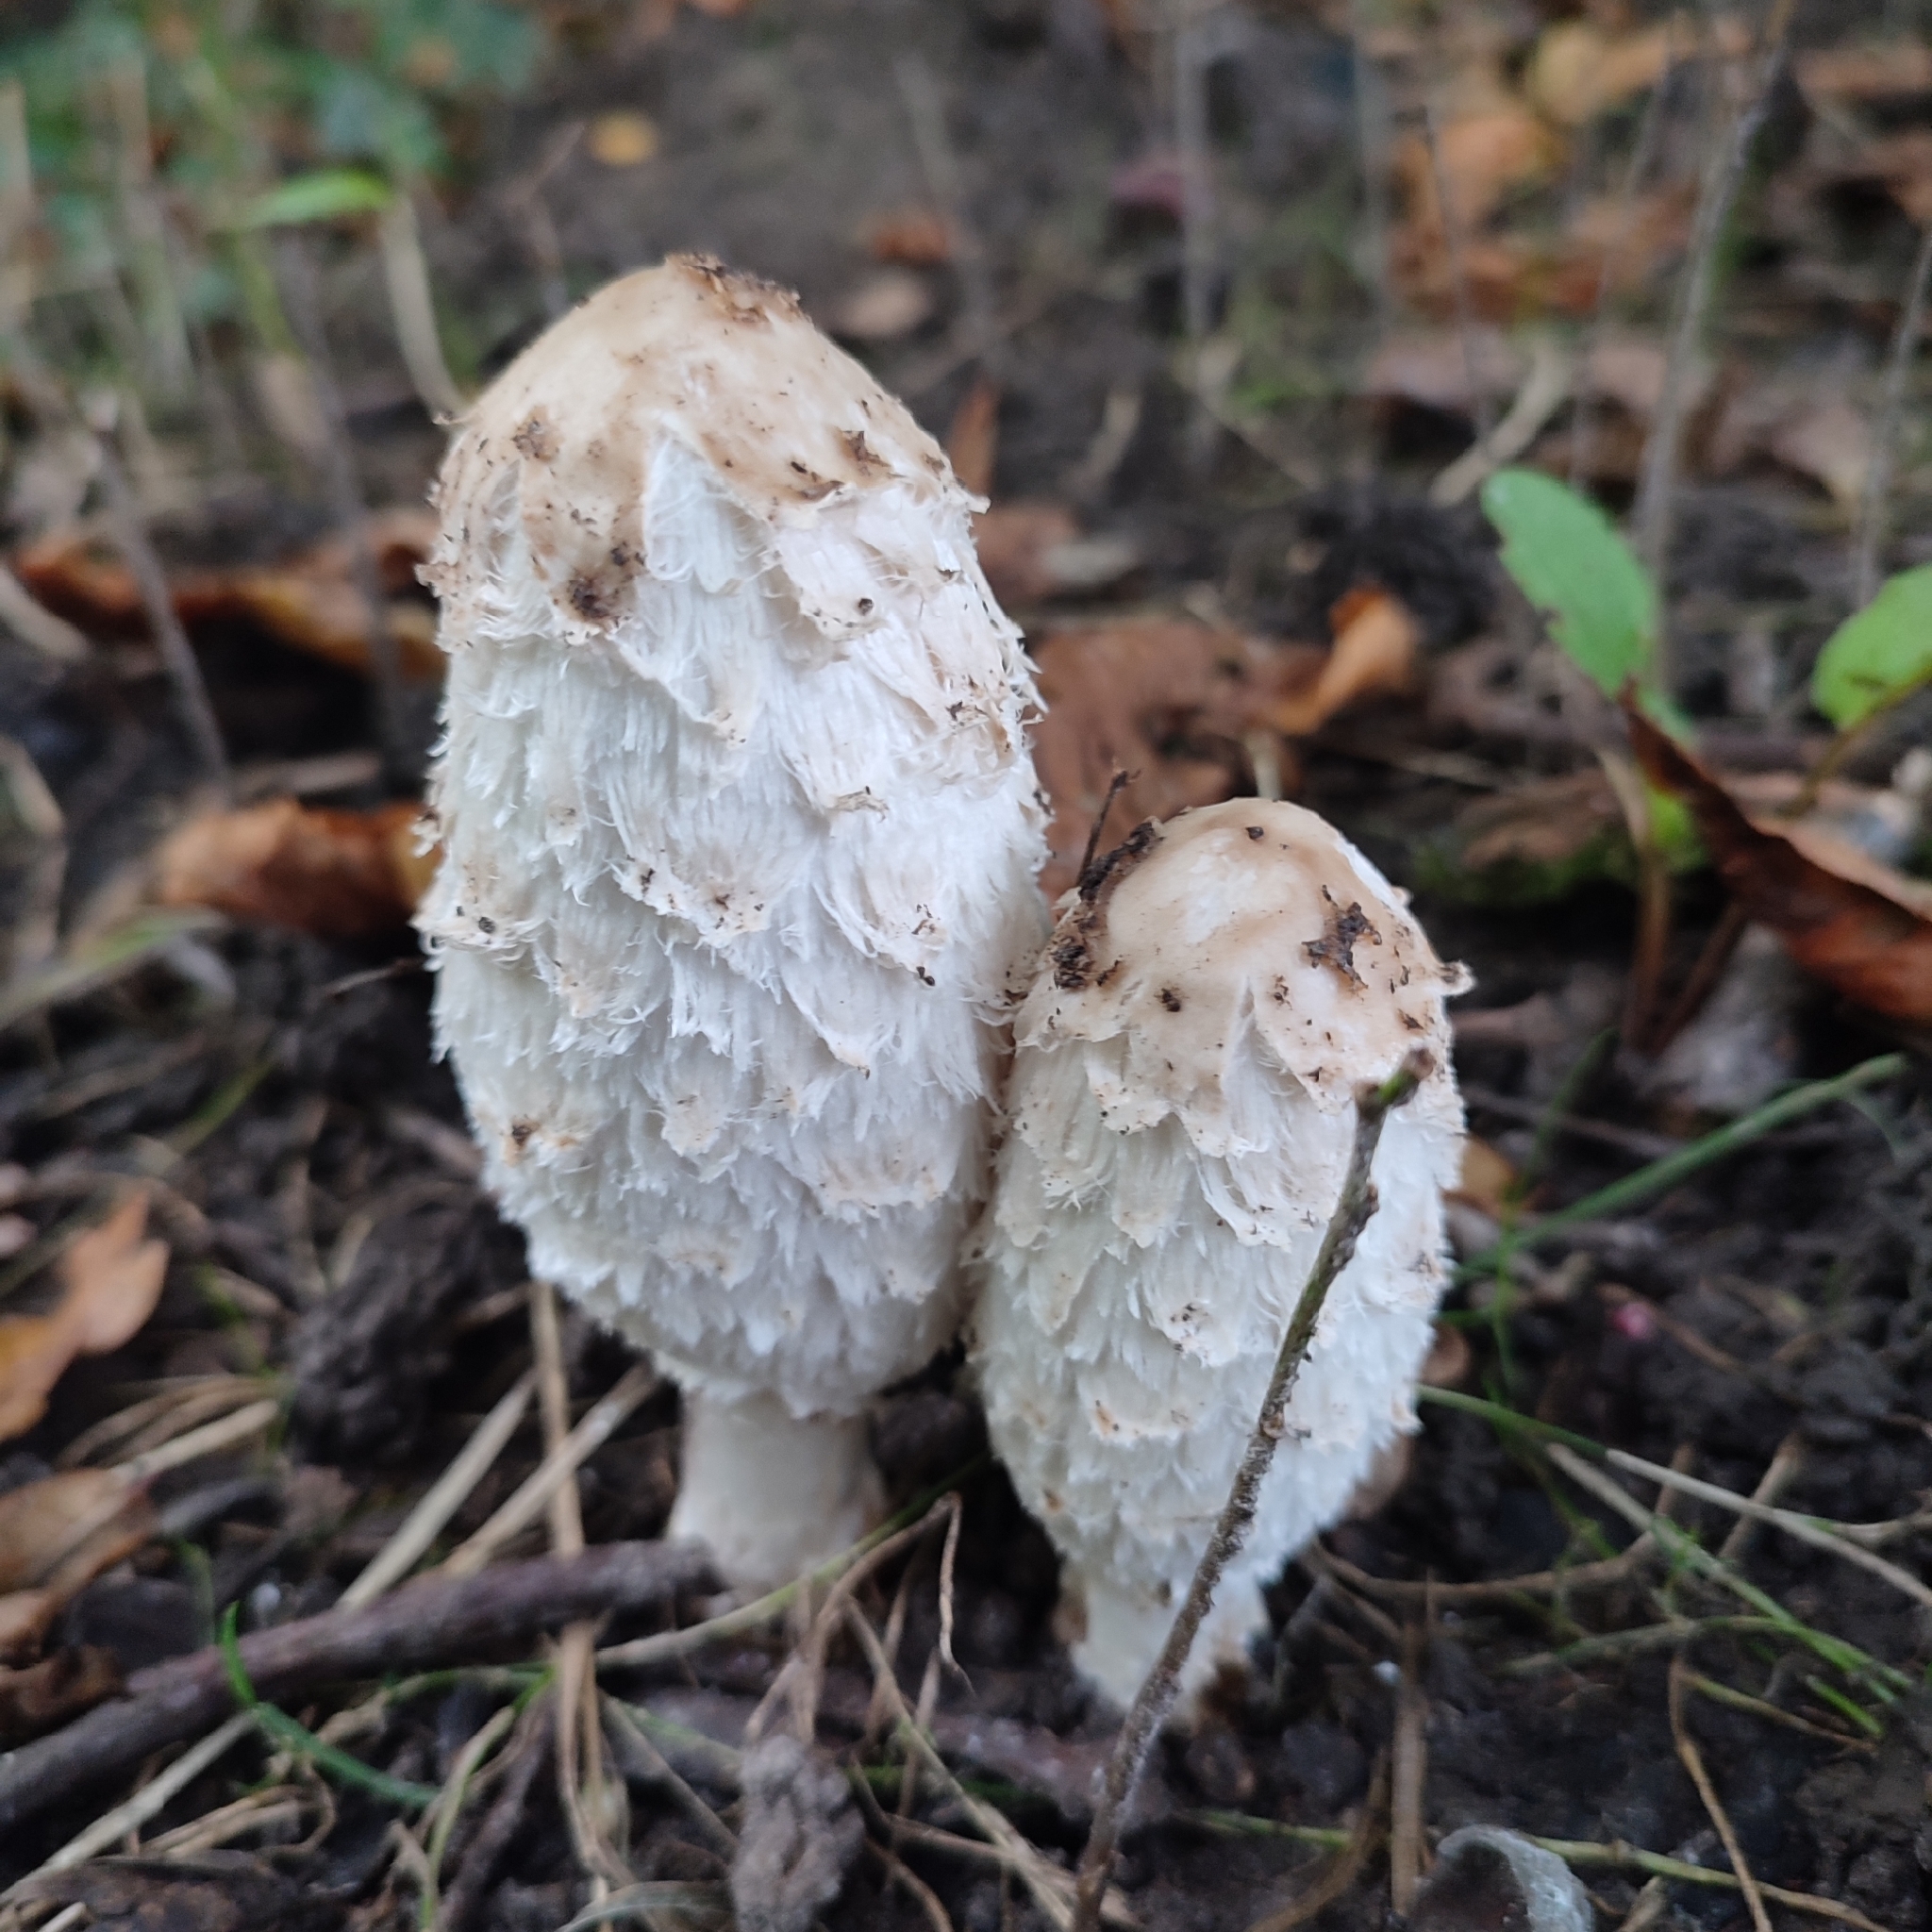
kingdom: Fungi
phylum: Basidiomycota
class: Agaricomycetes
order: Agaricales
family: Agaricaceae
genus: Coprinus
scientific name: Coprinus comatus
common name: Lawyer's wig
